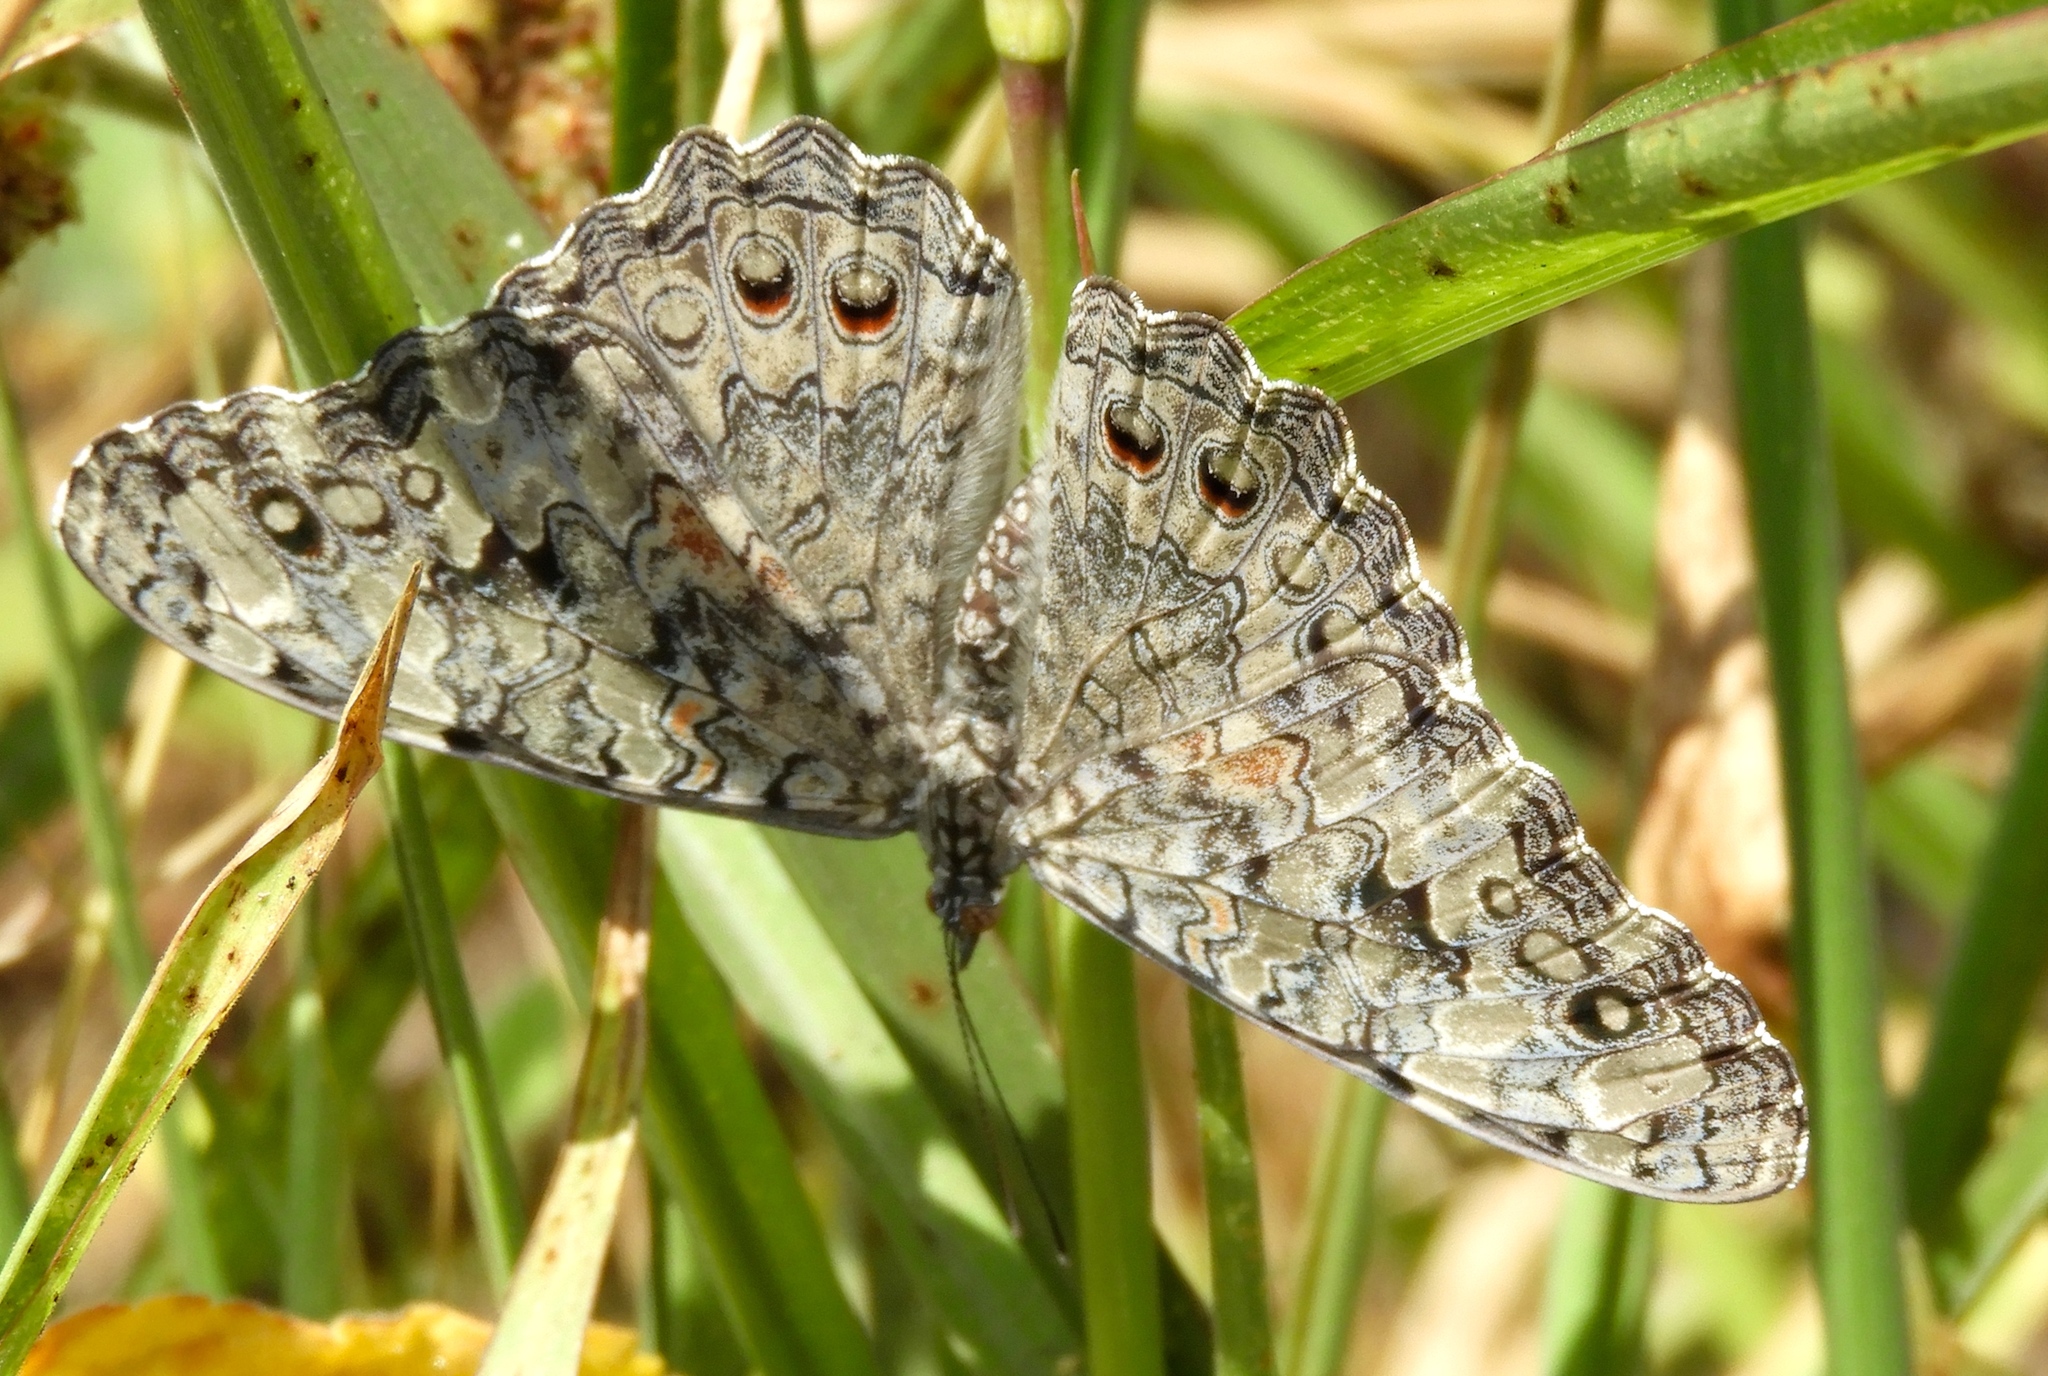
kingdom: Animalia
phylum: Arthropoda
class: Insecta
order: Lepidoptera
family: Nymphalidae
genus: Hamadryas
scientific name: Hamadryas februa
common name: Gray cracker
